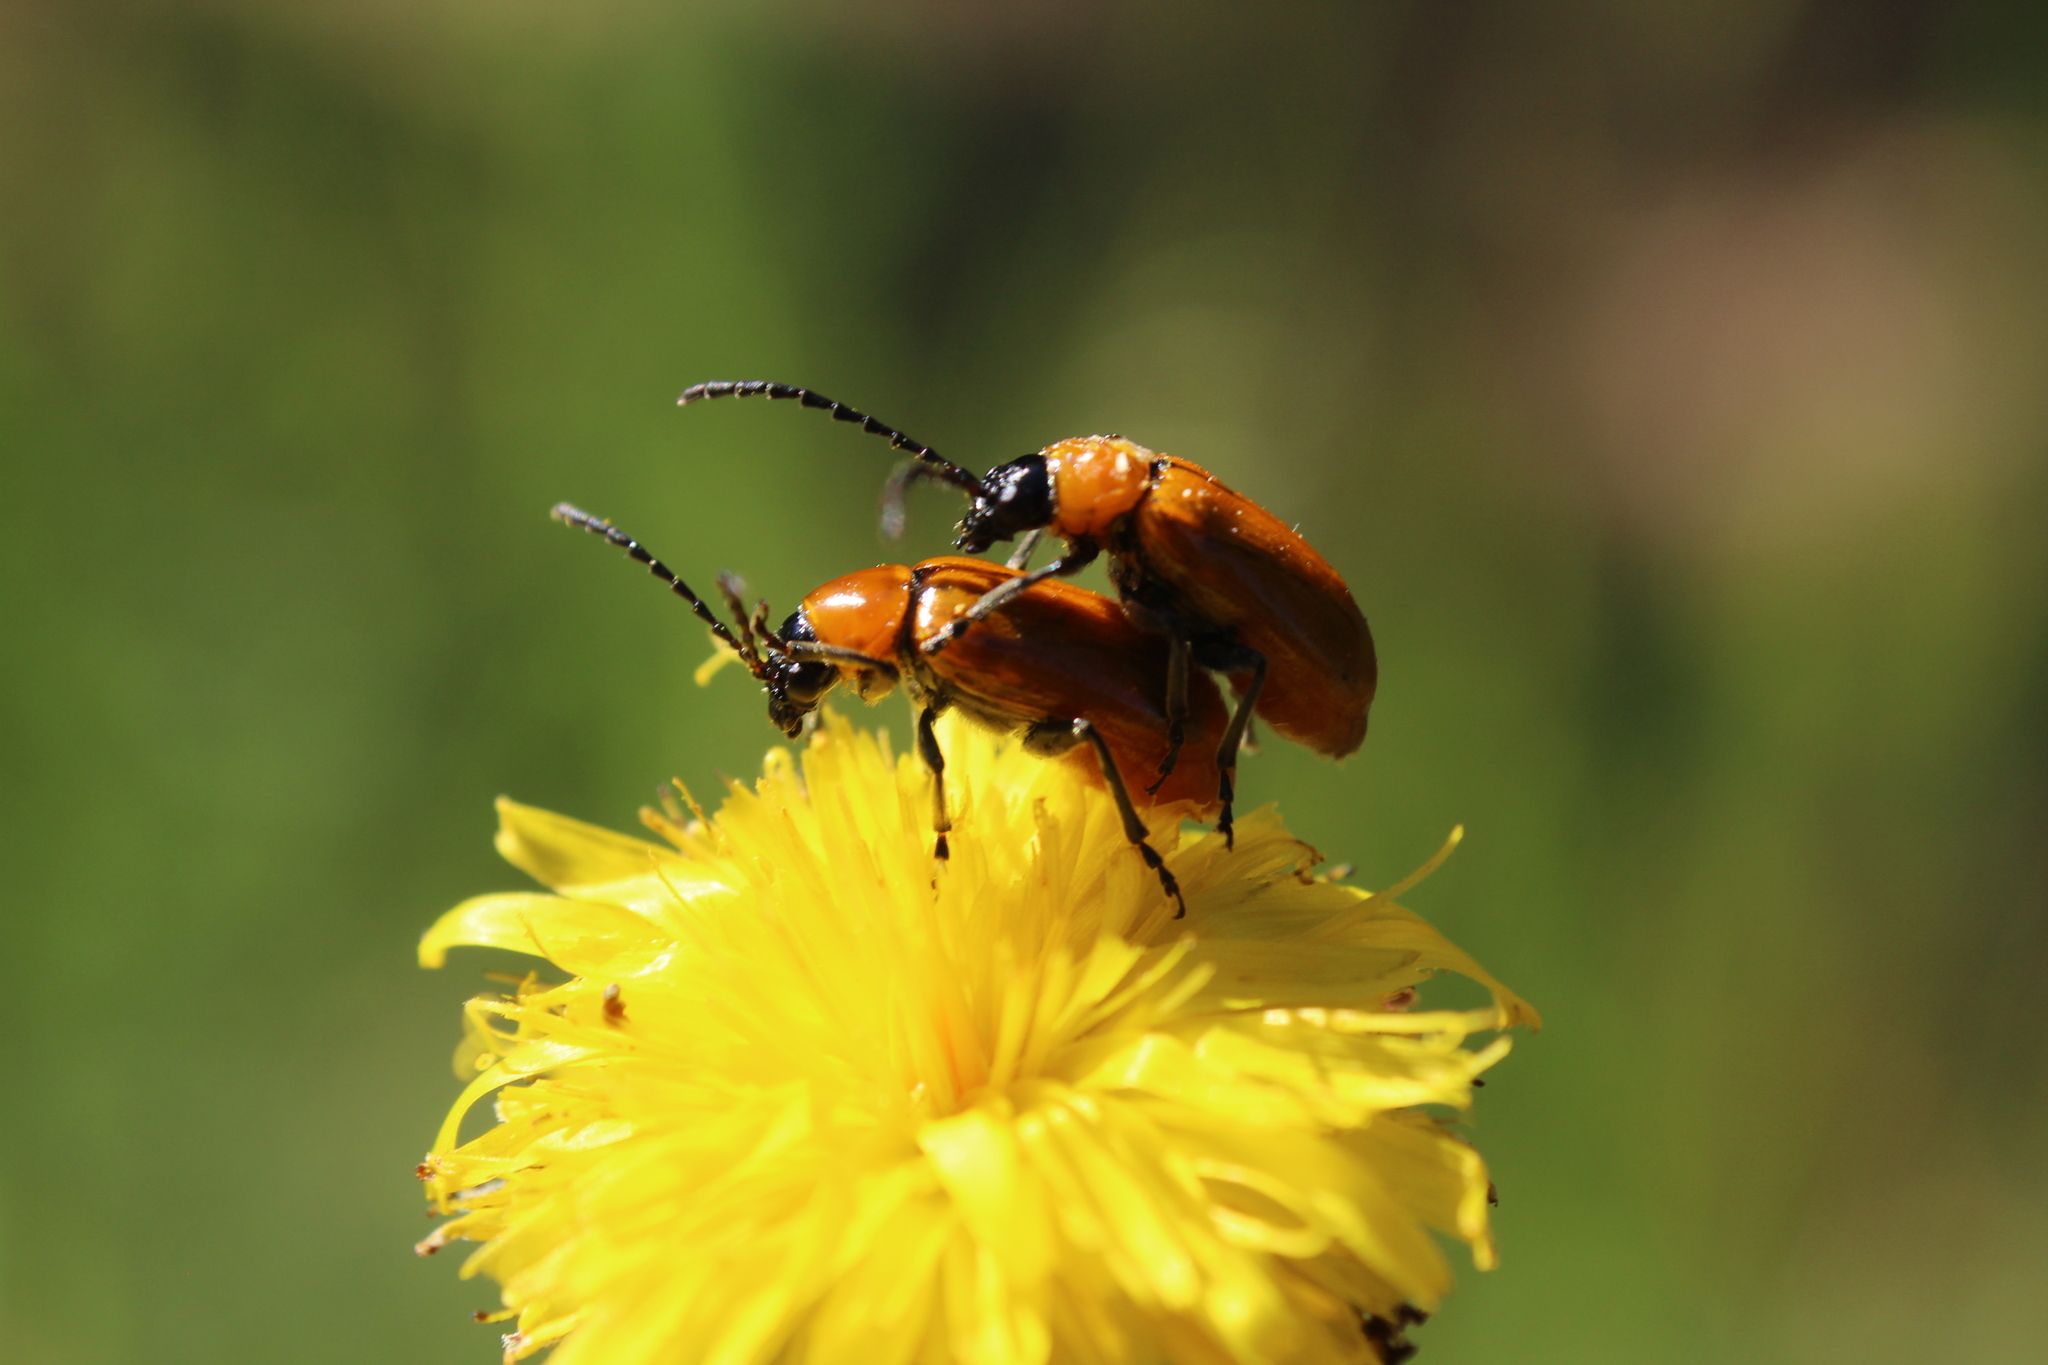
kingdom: Animalia
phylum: Arthropoda
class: Insecta
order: Coleoptera
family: Chrysomelidae
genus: Exosoma
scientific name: Exosoma lusitanicum
